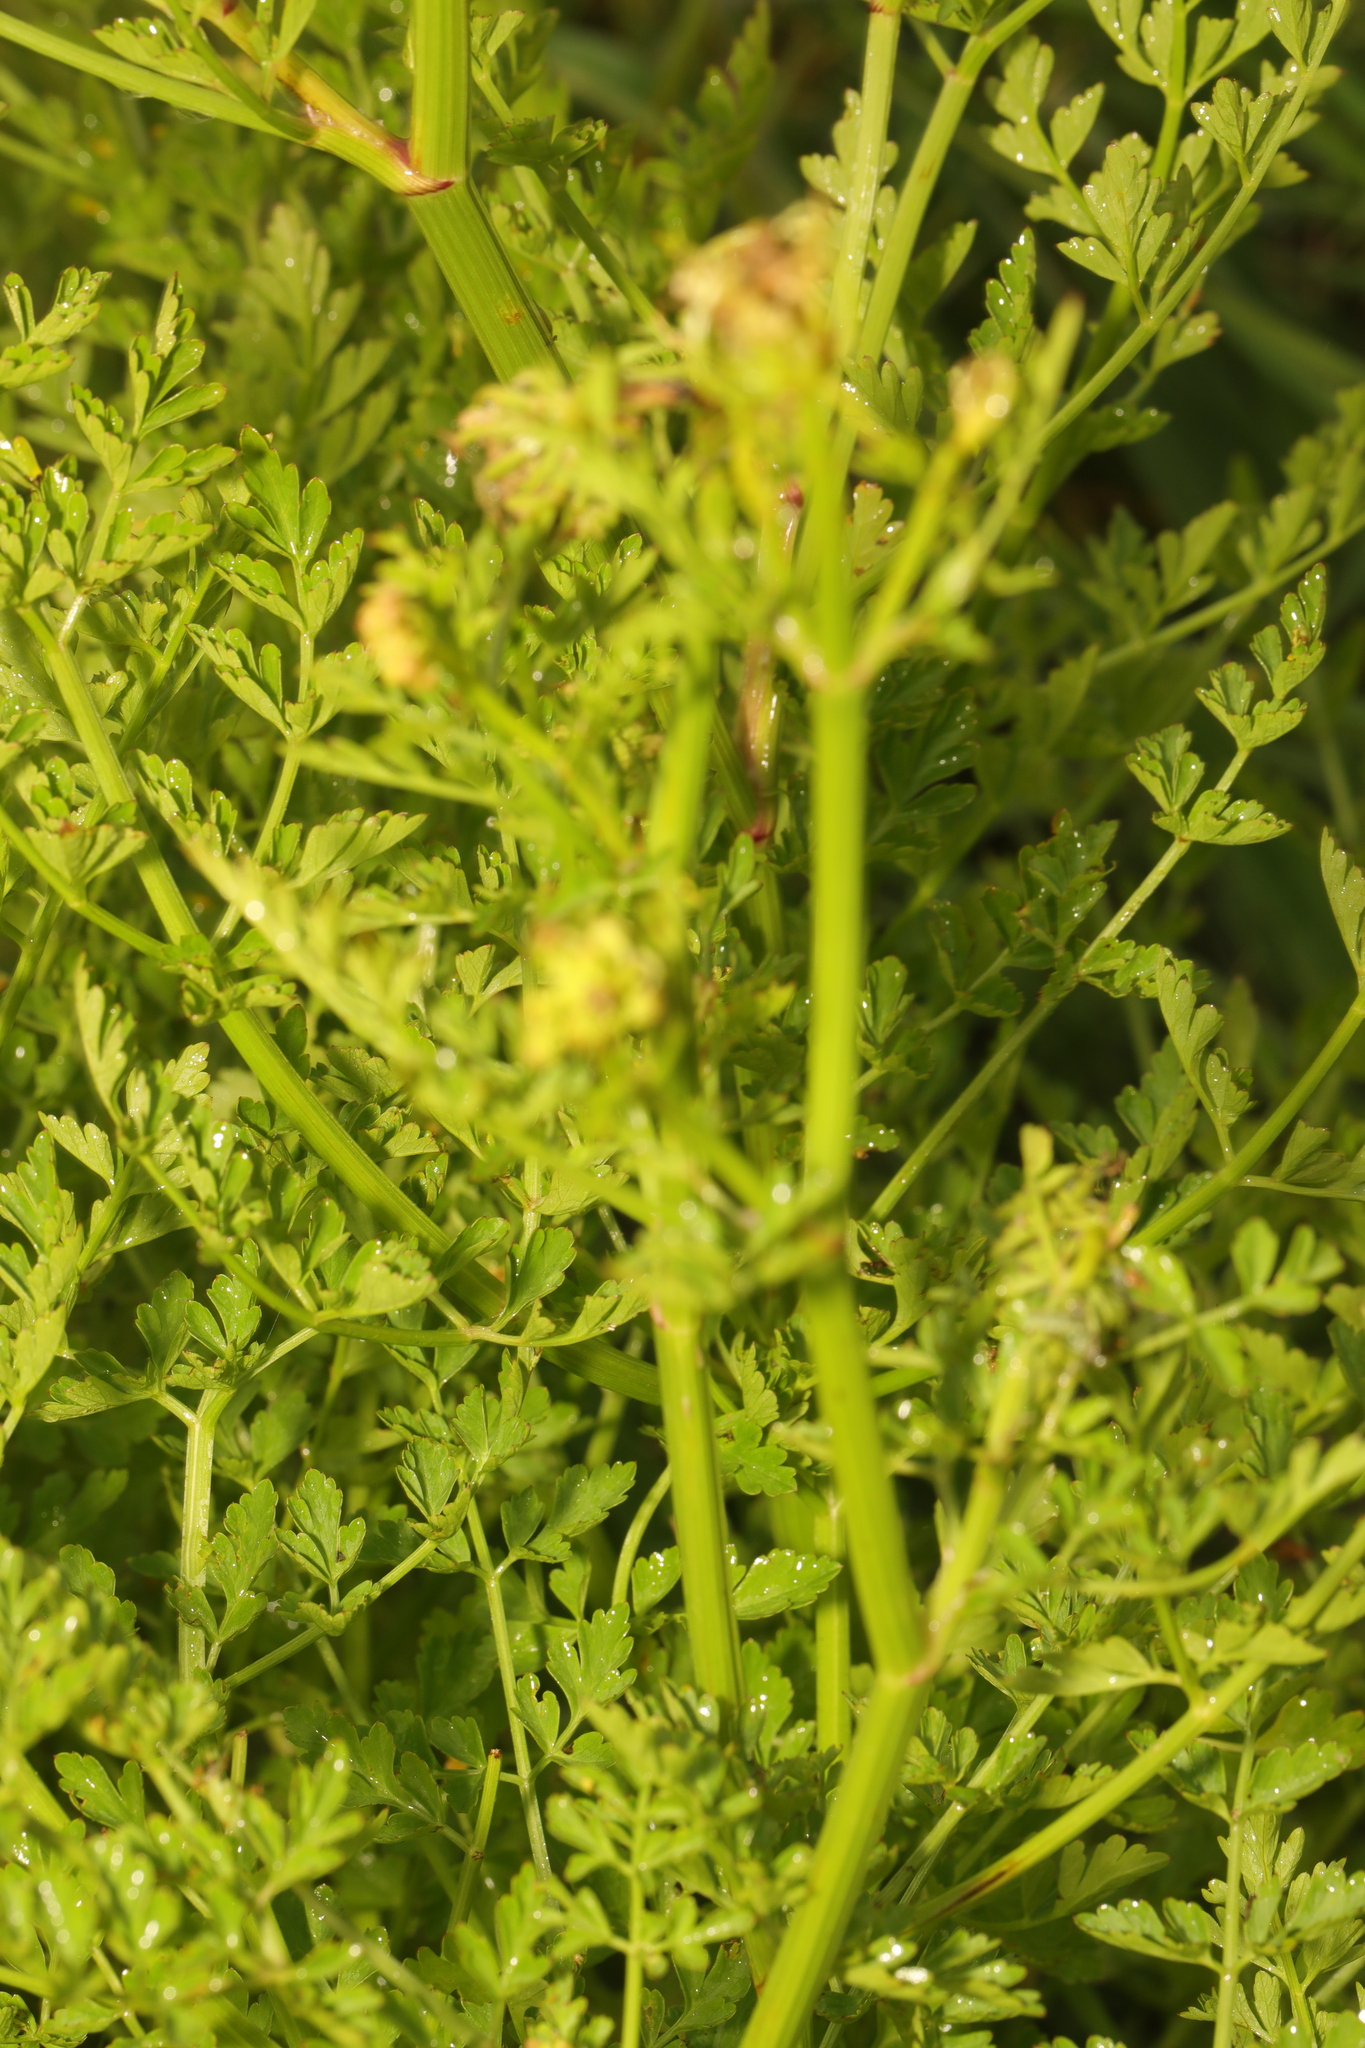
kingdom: Plantae
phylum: Tracheophyta
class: Magnoliopsida
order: Apiales
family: Apiaceae
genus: Oenanthe
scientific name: Oenanthe crocata
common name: Hemlock water-dropwort
